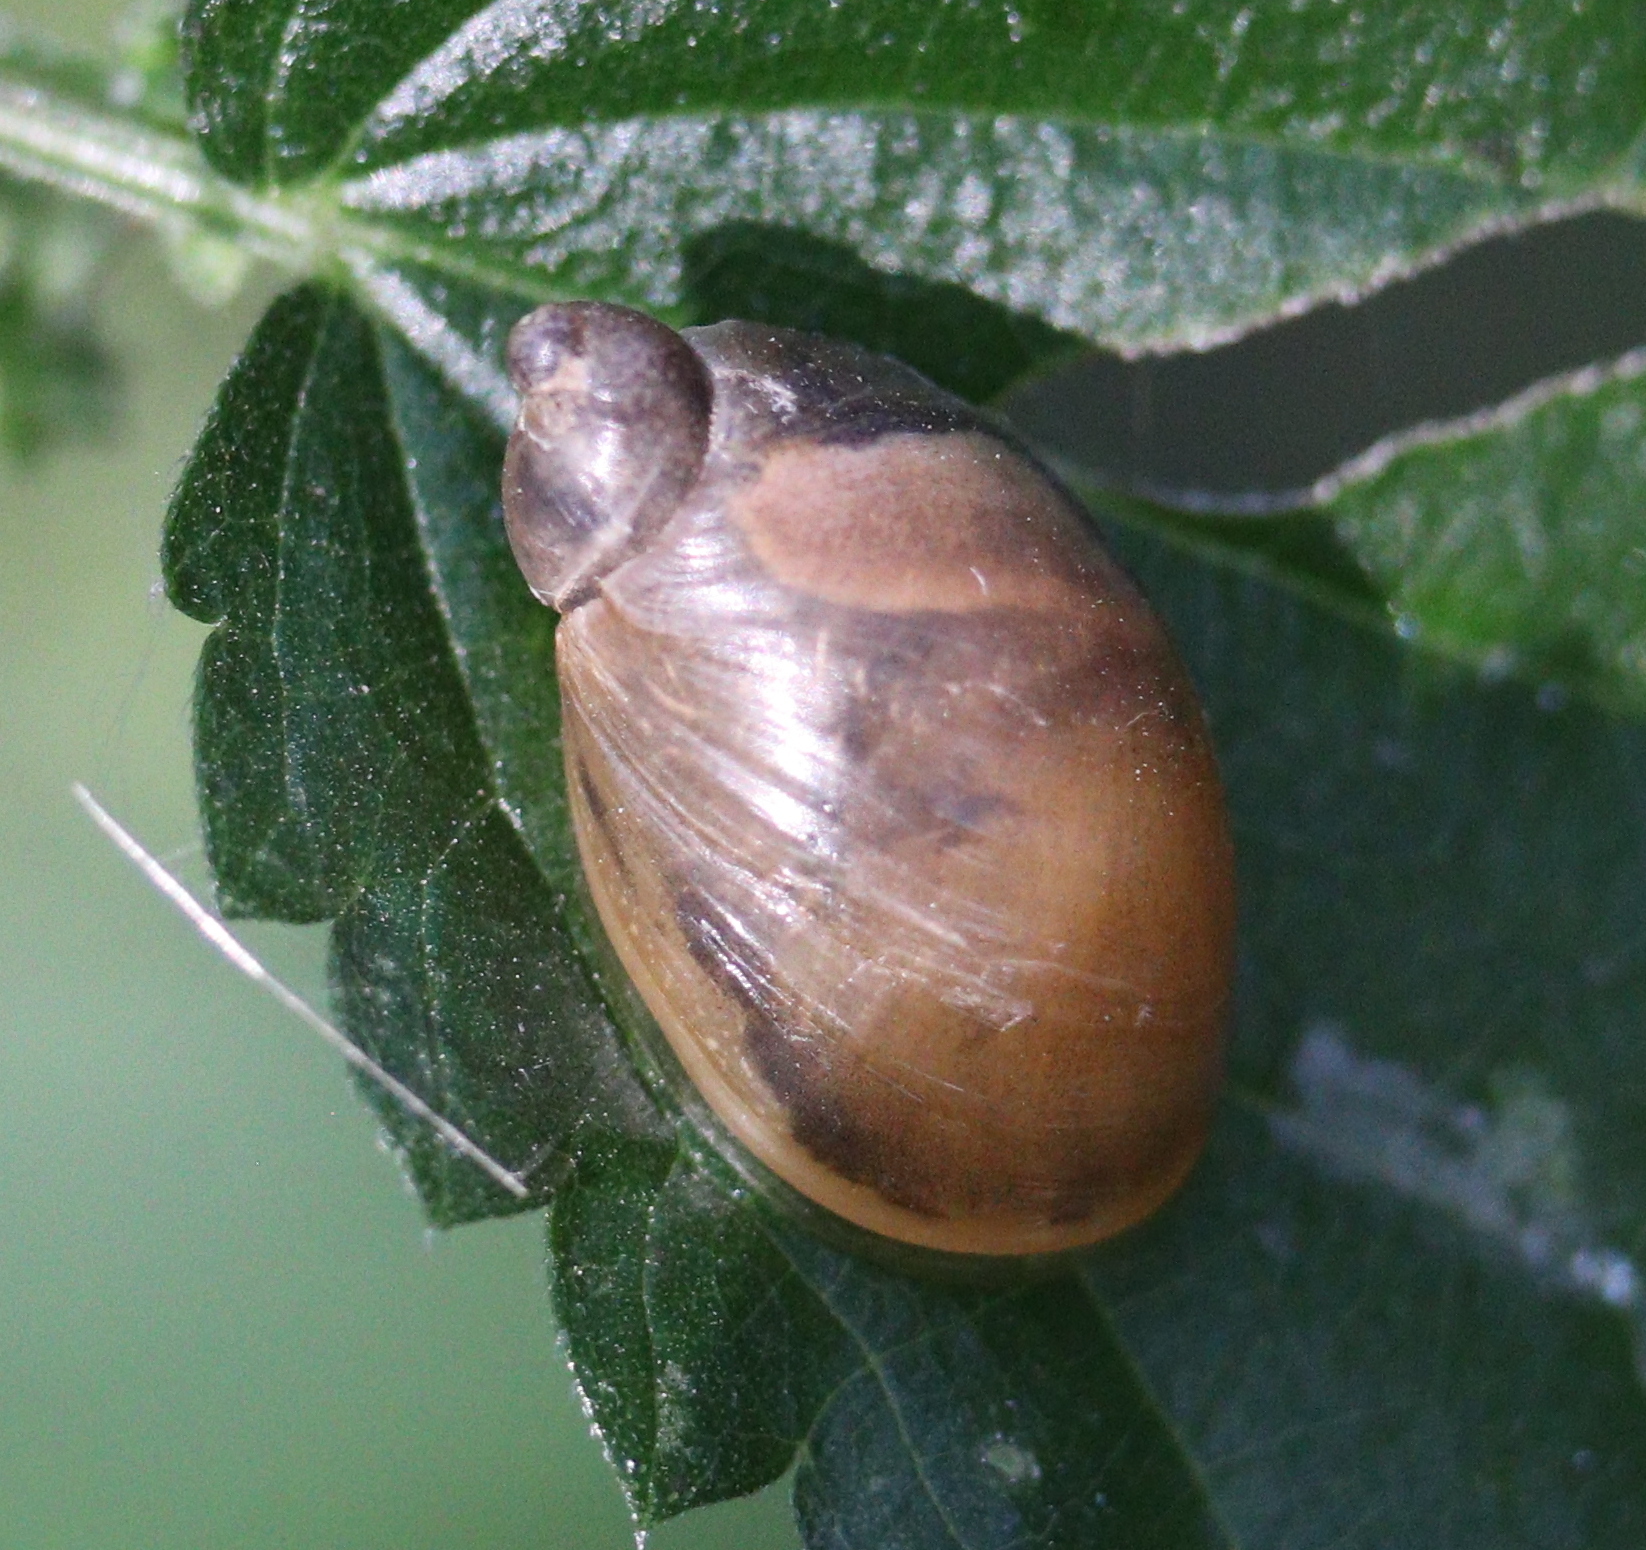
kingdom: Animalia
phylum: Mollusca
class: Gastropoda
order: Stylommatophora
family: Succineidae
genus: Succinea
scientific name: Succinea putris
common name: European ambersnail
